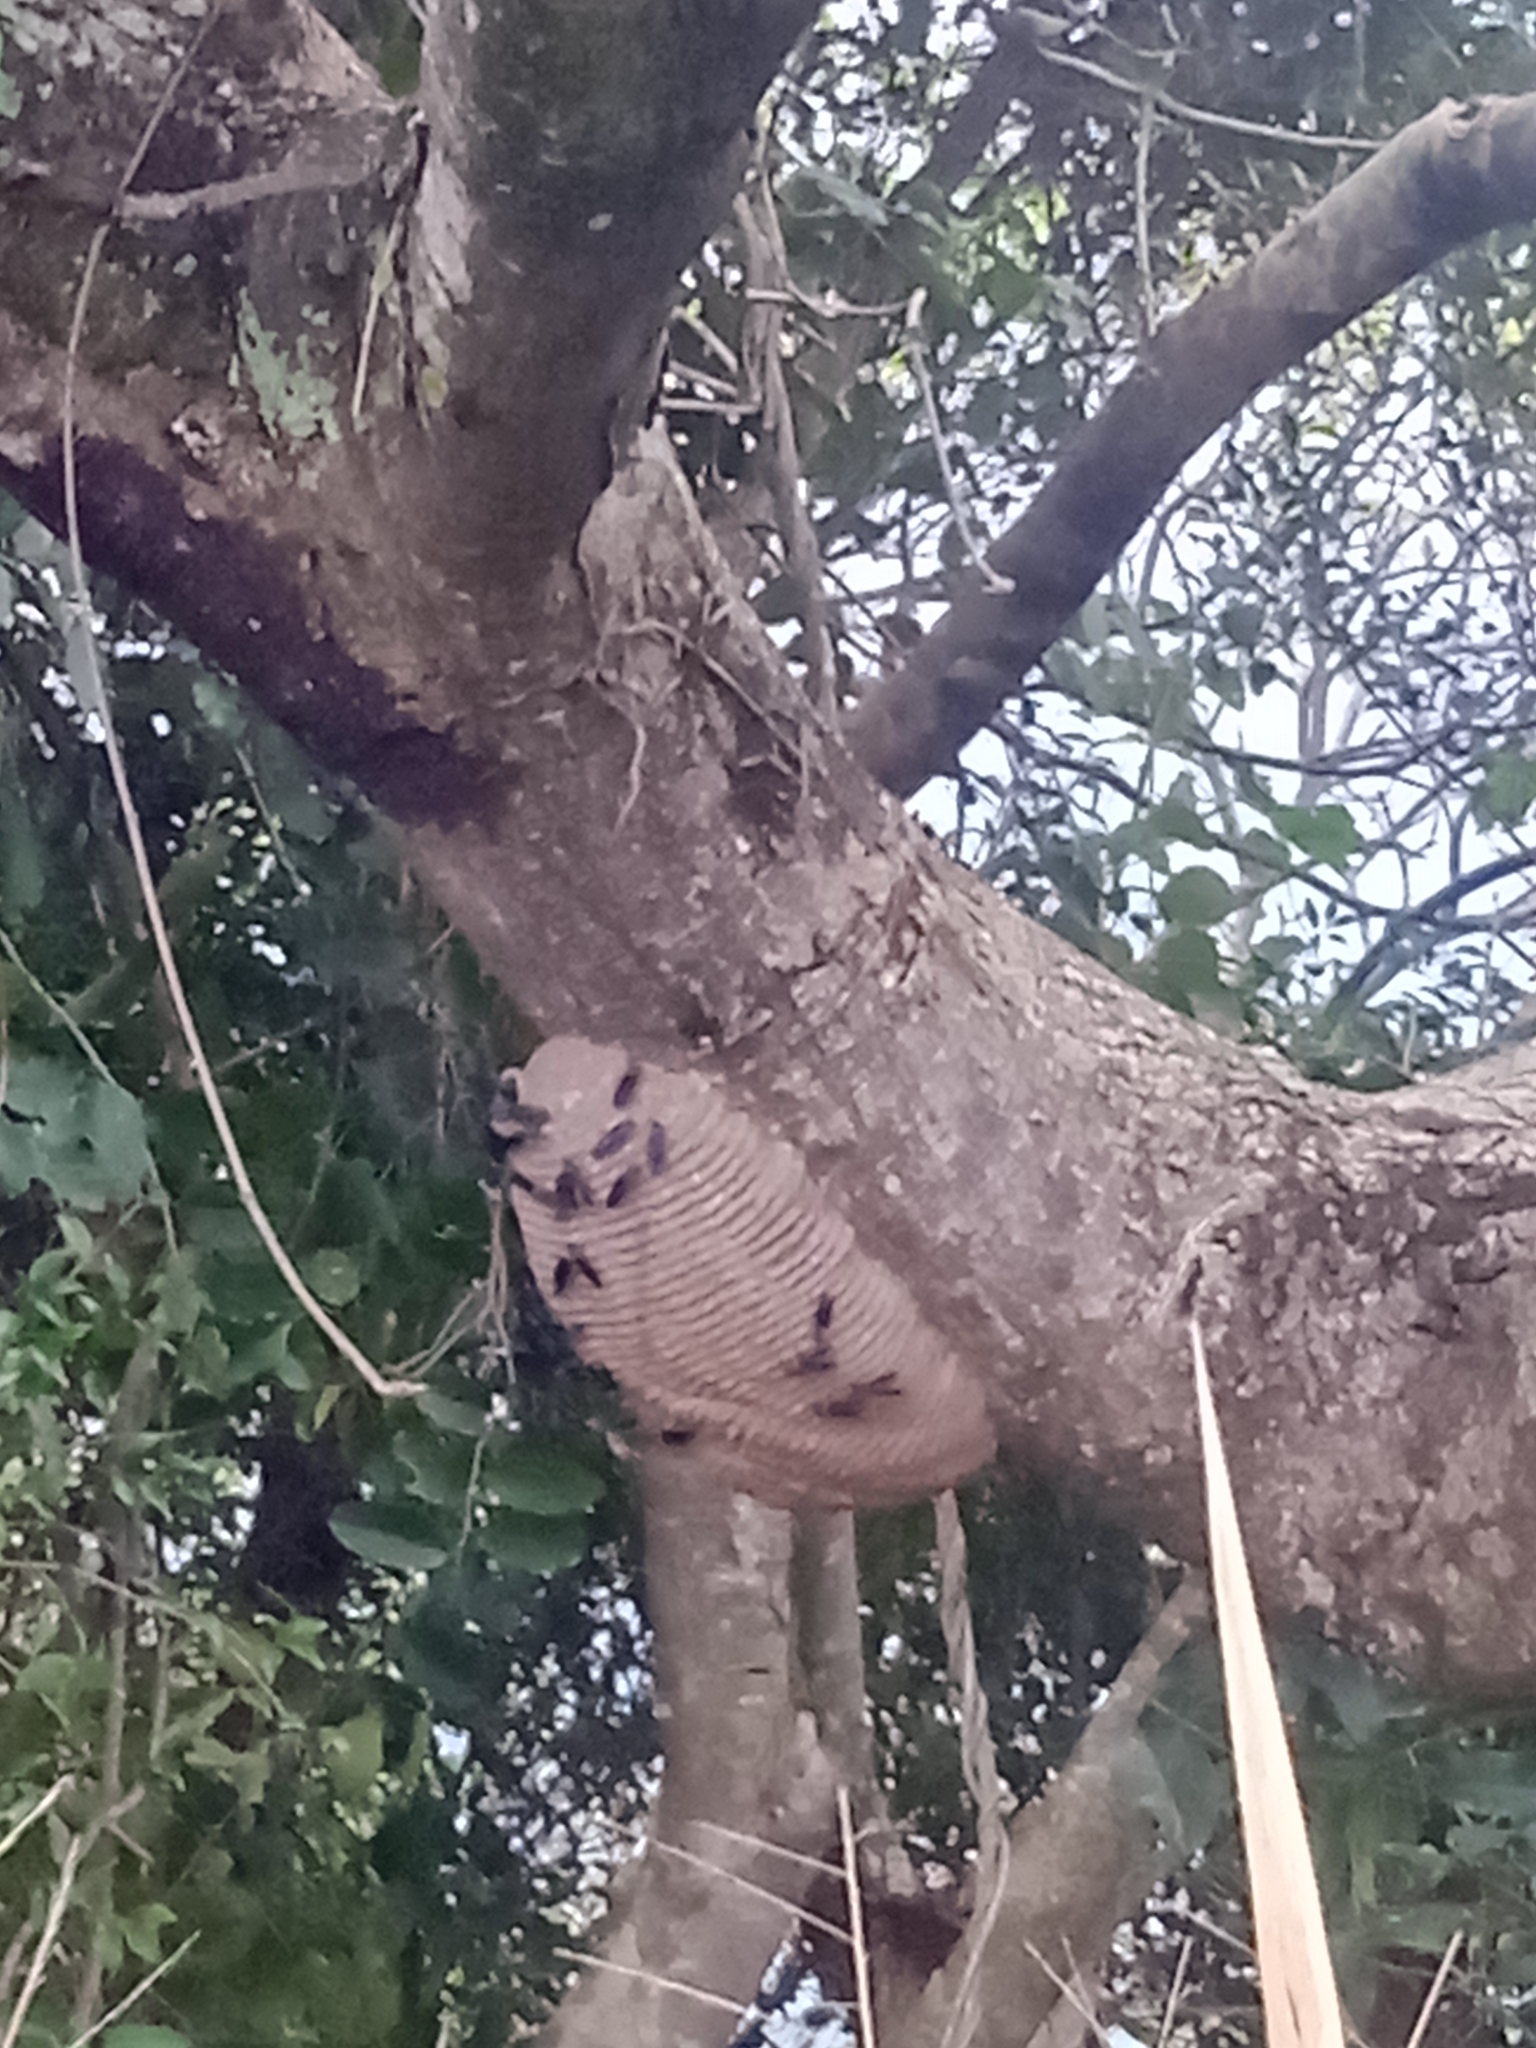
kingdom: Animalia
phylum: Arthropoda
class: Insecta
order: Hymenoptera
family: Vespidae
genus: Synoeca
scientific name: Synoeca cyanea
